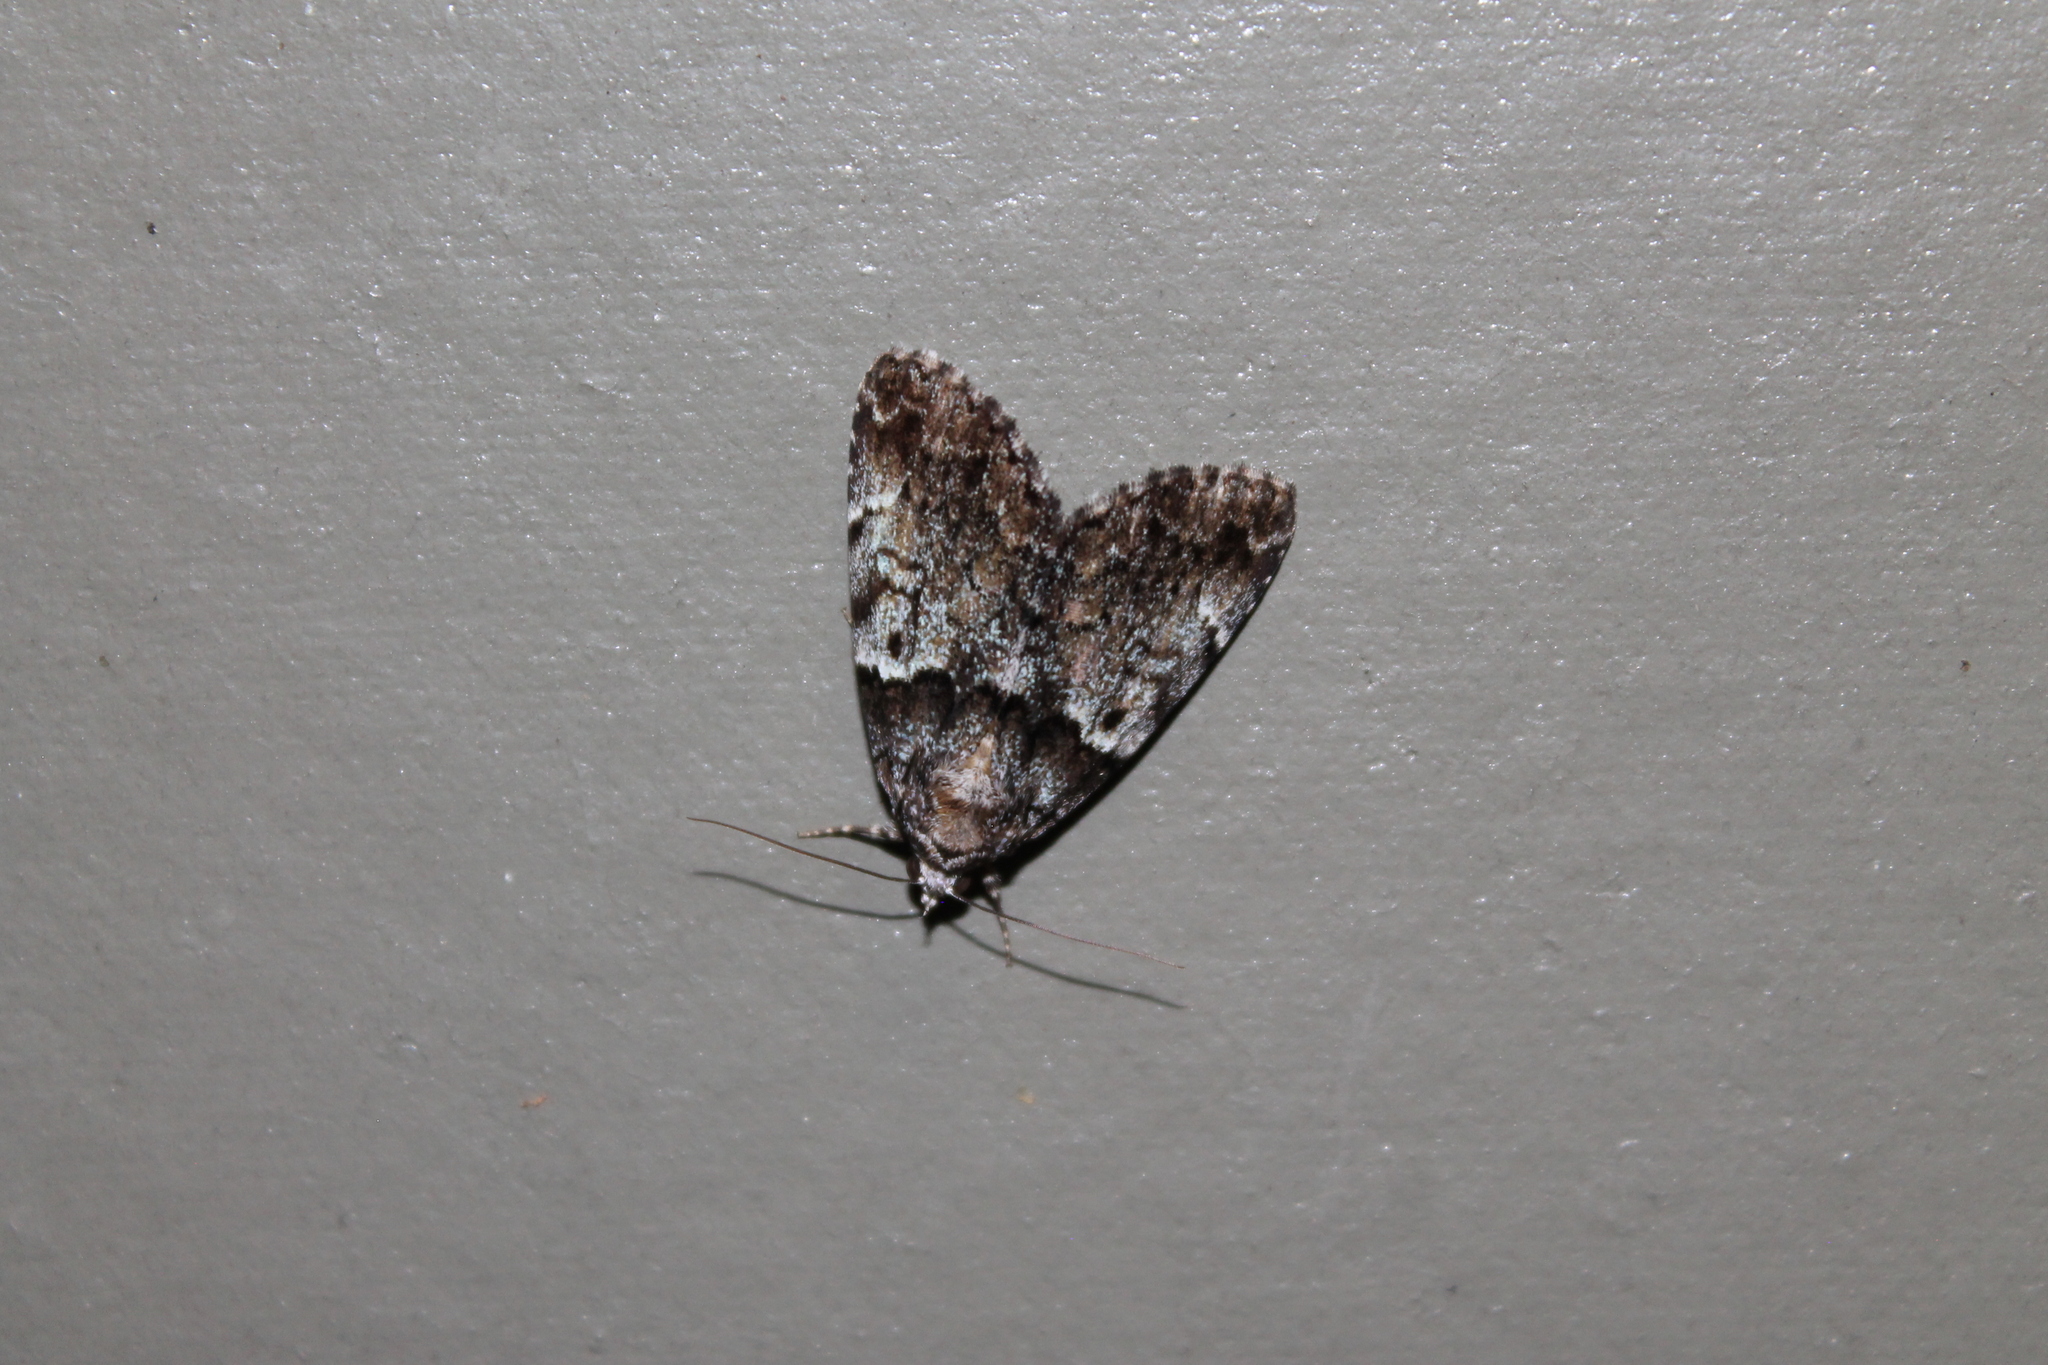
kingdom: Animalia
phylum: Arthropoda
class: Insecta
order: Lepidoptera
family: Erebidae
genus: Allotria
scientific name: Allotria elonympha
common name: False underwing
